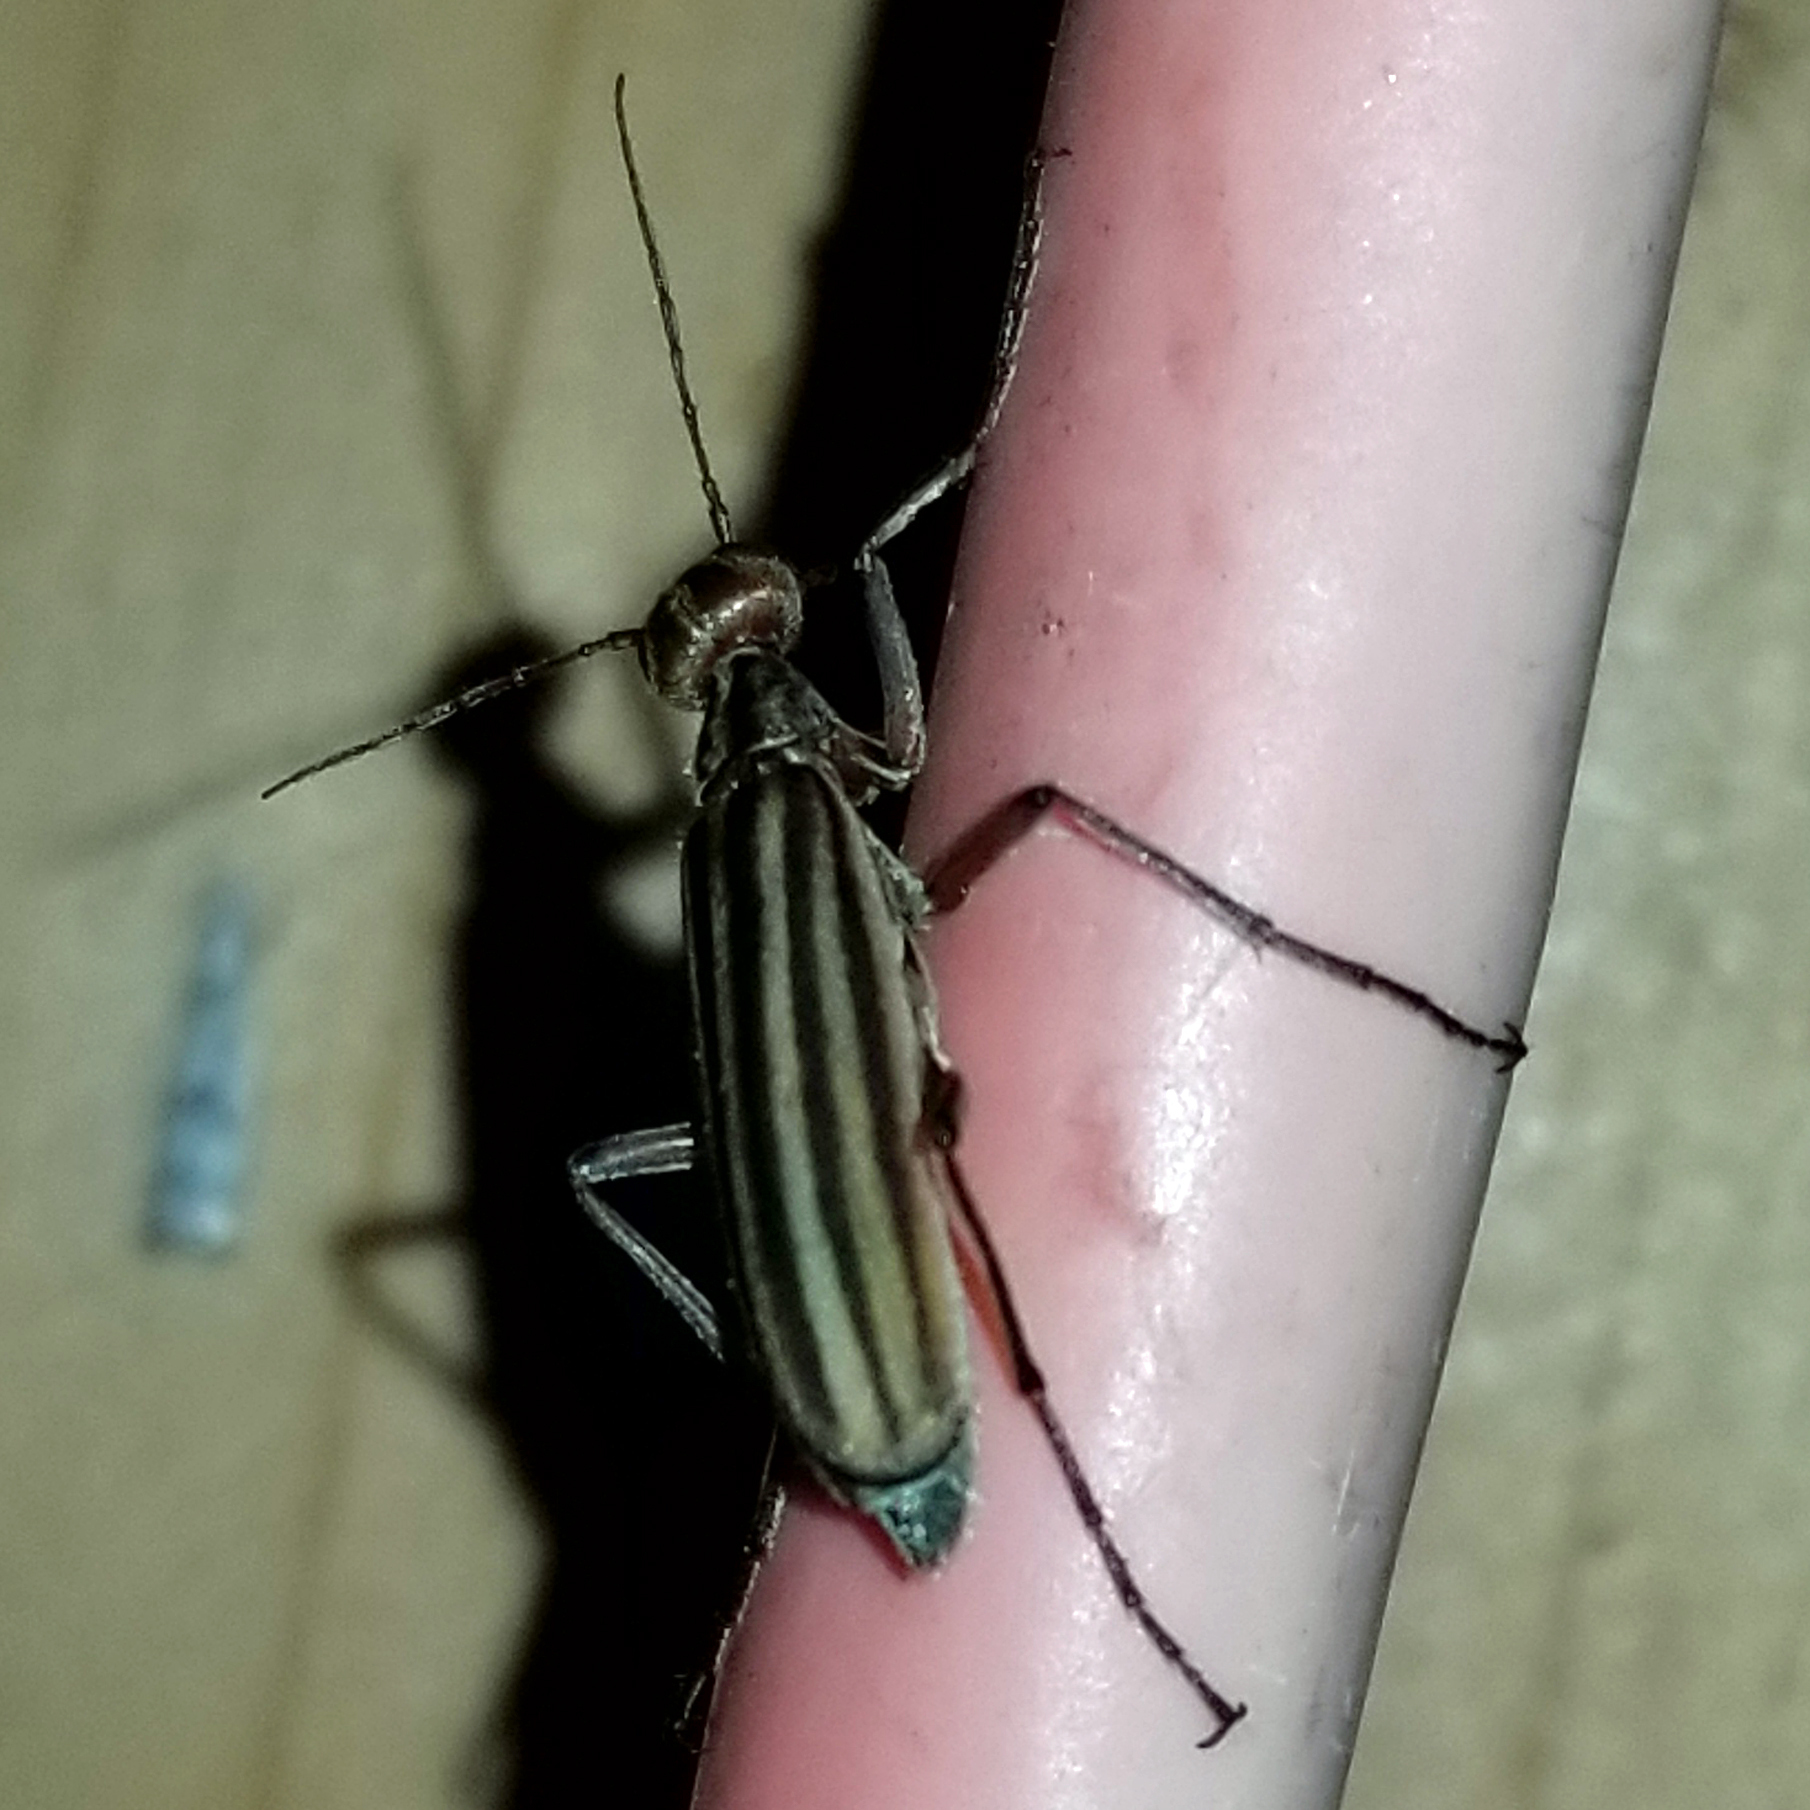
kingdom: Animalia
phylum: Arthropoda
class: Insecta
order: Coleoptera
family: Meloidae
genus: Epicauta
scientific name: Epicauta vittata
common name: Old-fashioned potato beetle
